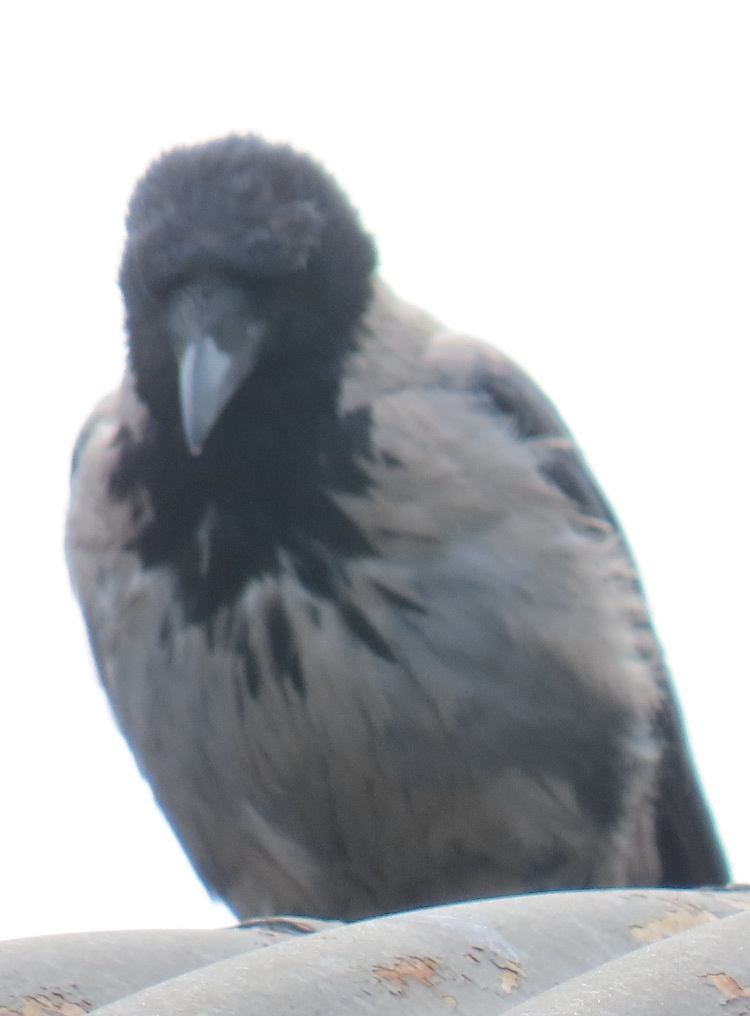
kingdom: Animalia
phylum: Chordata
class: Aves
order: Passeriformes
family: Corvidae
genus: Corvus
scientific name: Corvus cornix
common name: Hooded crow
